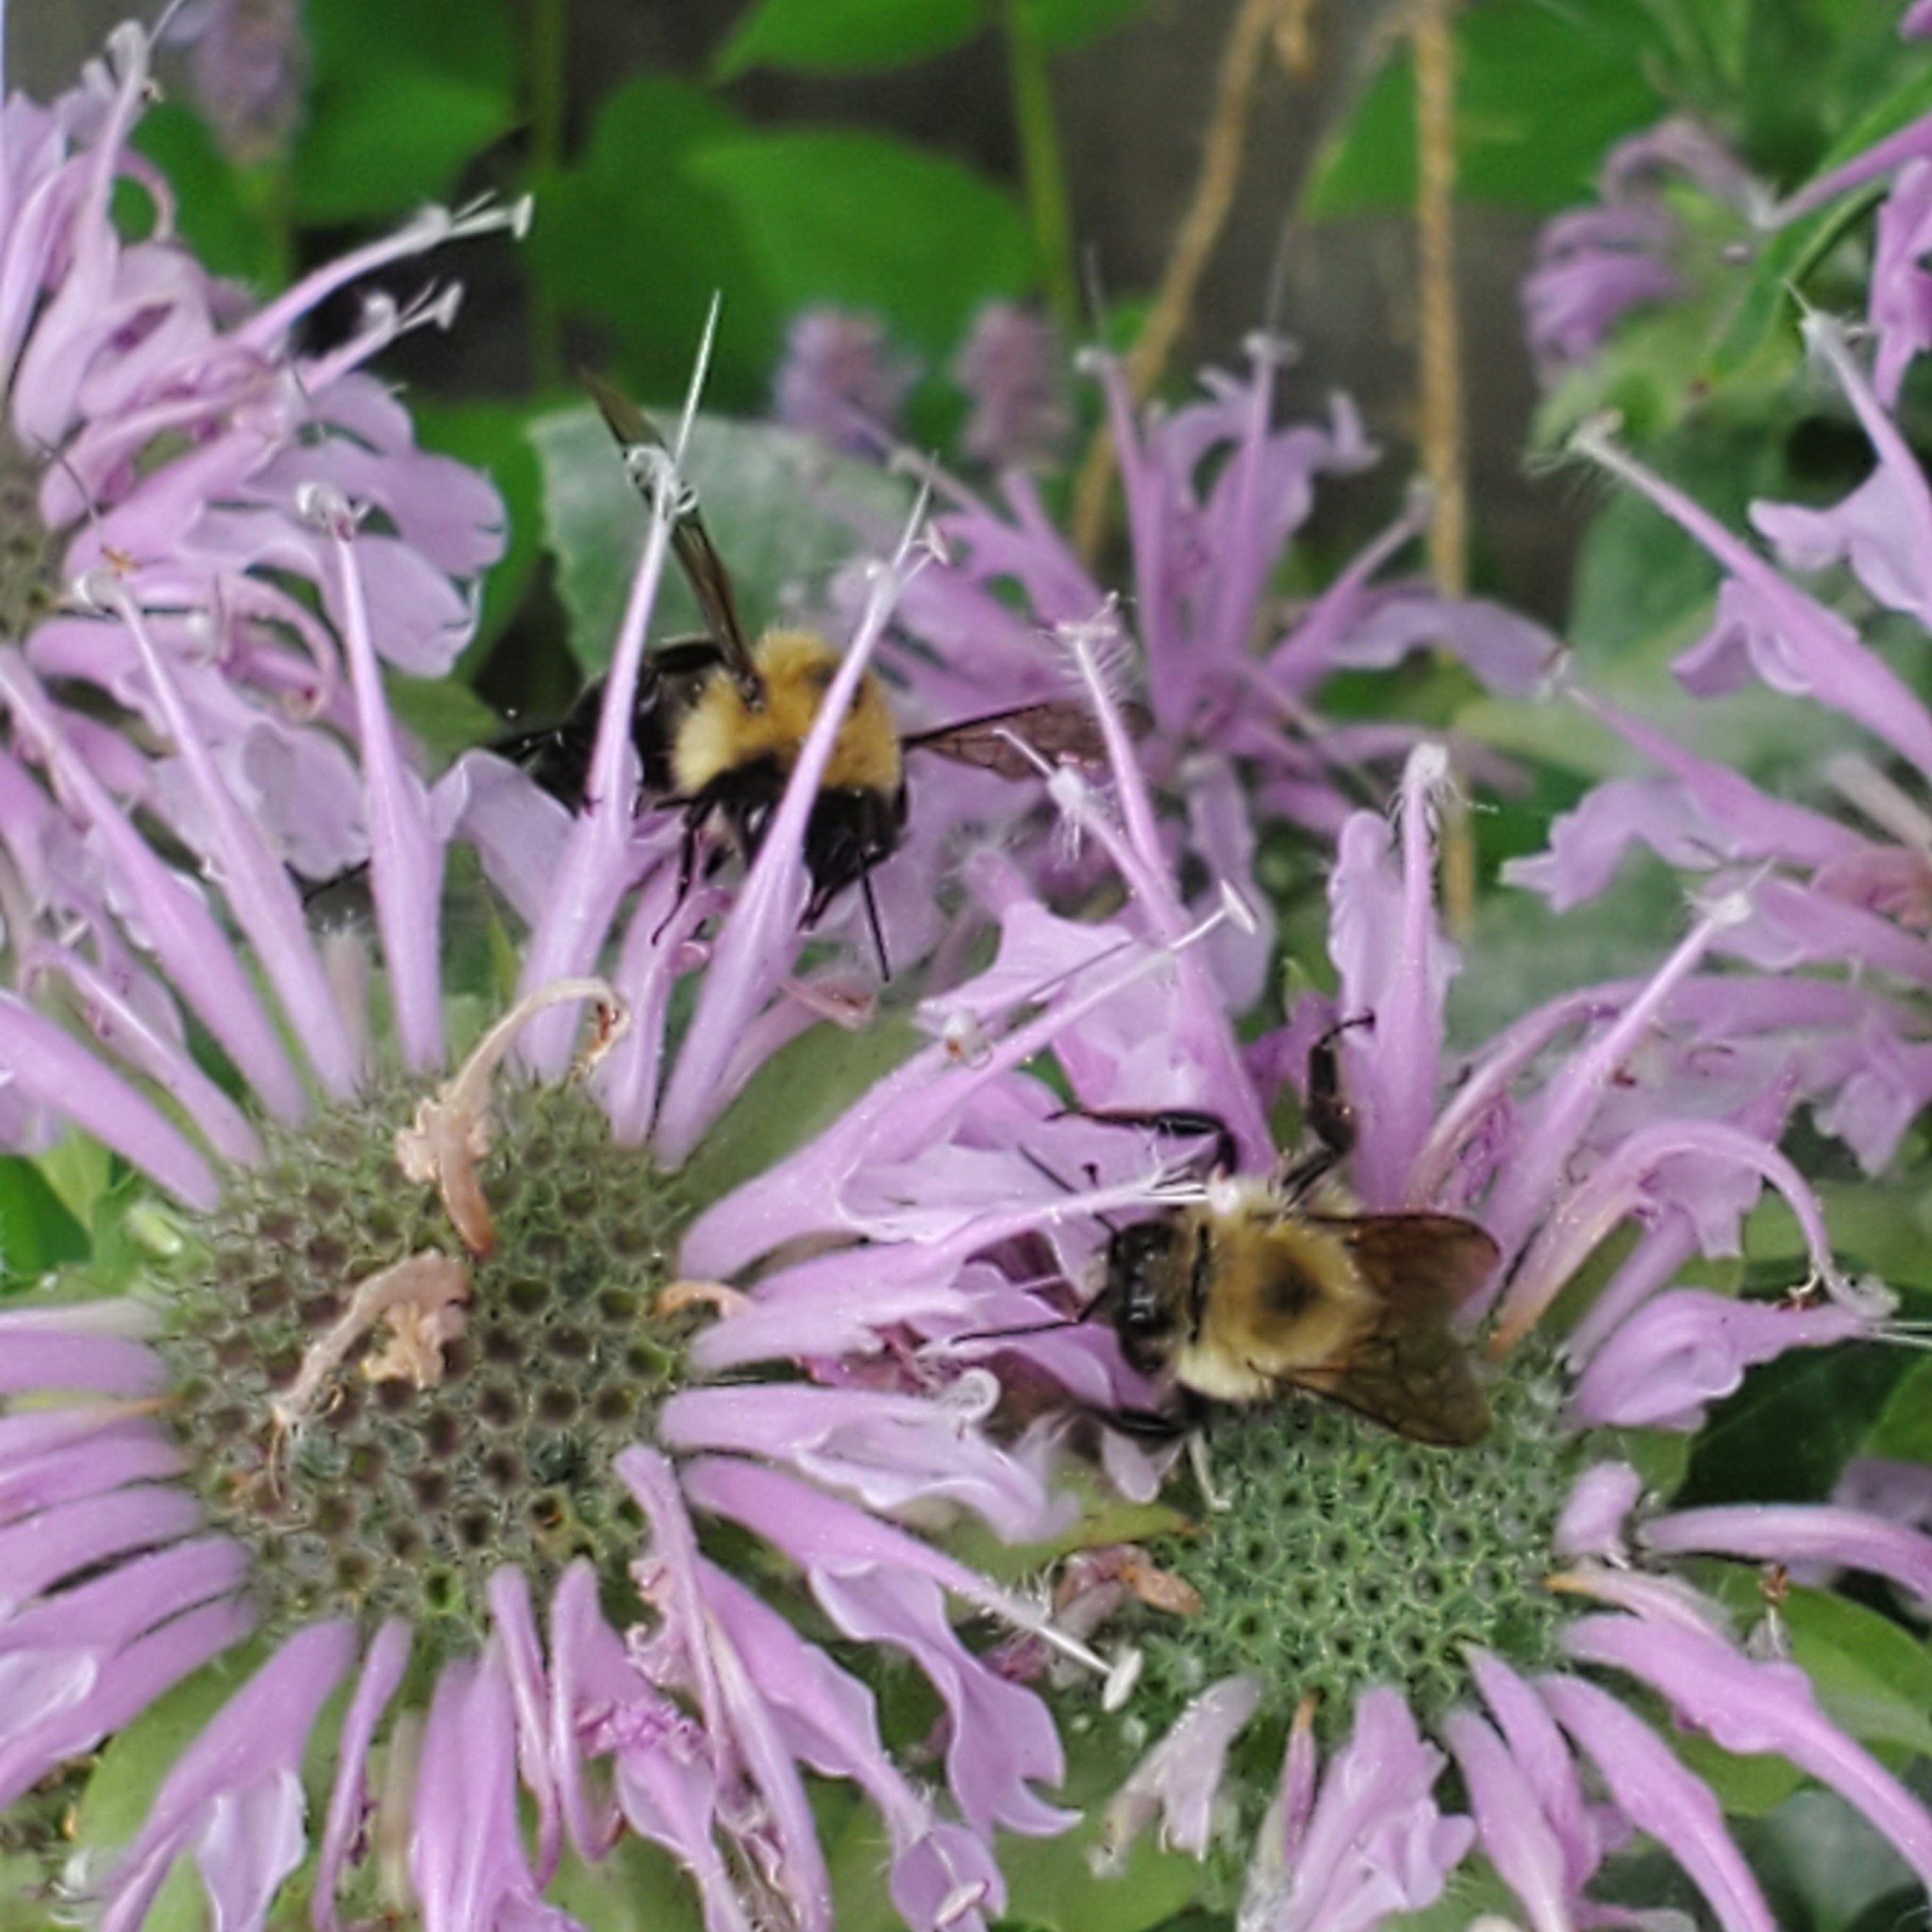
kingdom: Animalia
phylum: Arthropoda
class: Insecta
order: Hymenoptera
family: Apidae
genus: Bombus
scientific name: Bombus bimaculatus
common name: Two-spotted bumble bee
